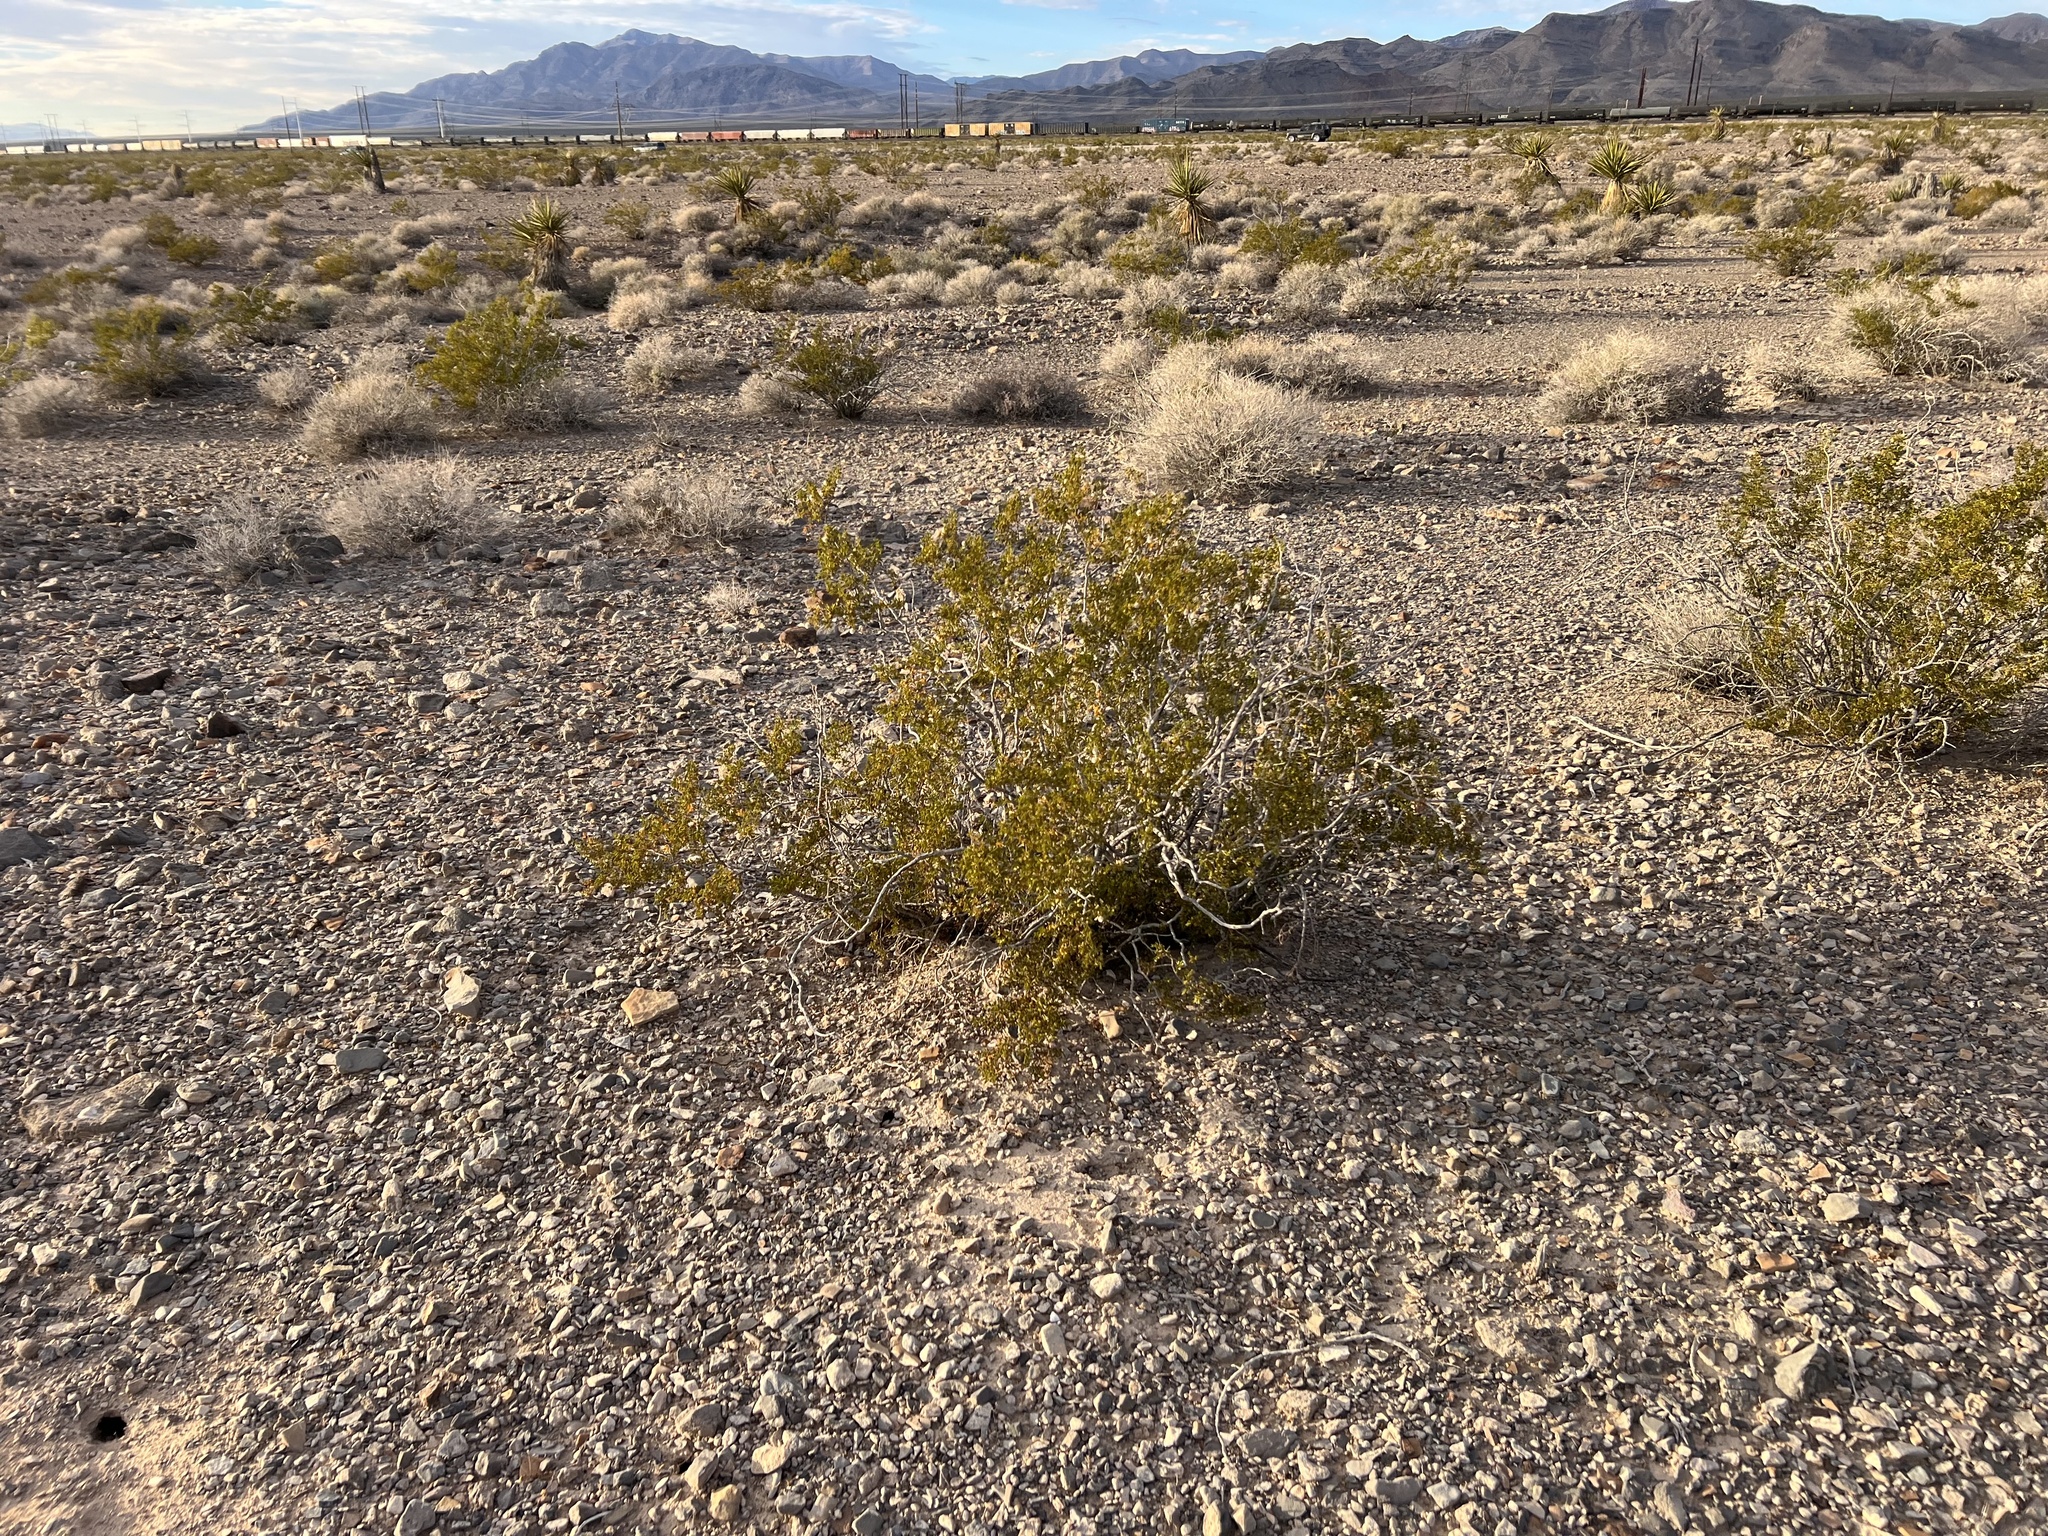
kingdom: Plantae
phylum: Tracheophyta
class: Magnoliopsida
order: Zygophyllales
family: Zygophyllaceae
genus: Larrea
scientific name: Larrea tridentata
